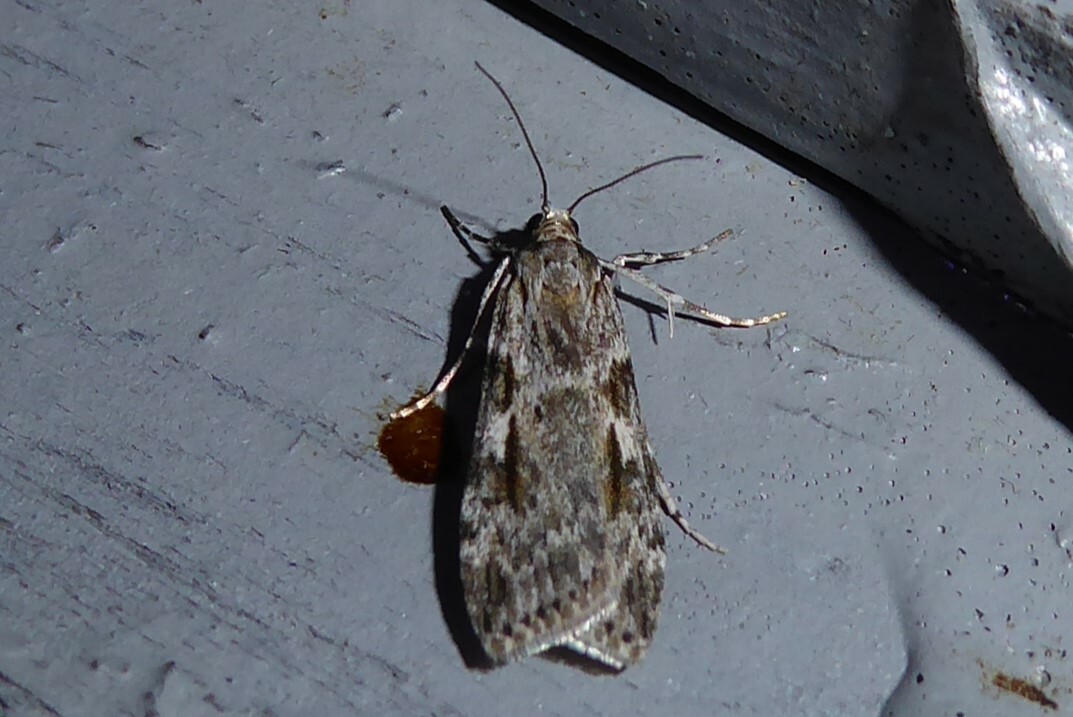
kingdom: Animalia
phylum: Arthropoda
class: Insecta
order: Lepidoptera
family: Crambidae
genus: Scoparia
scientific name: Scoparia halopis
